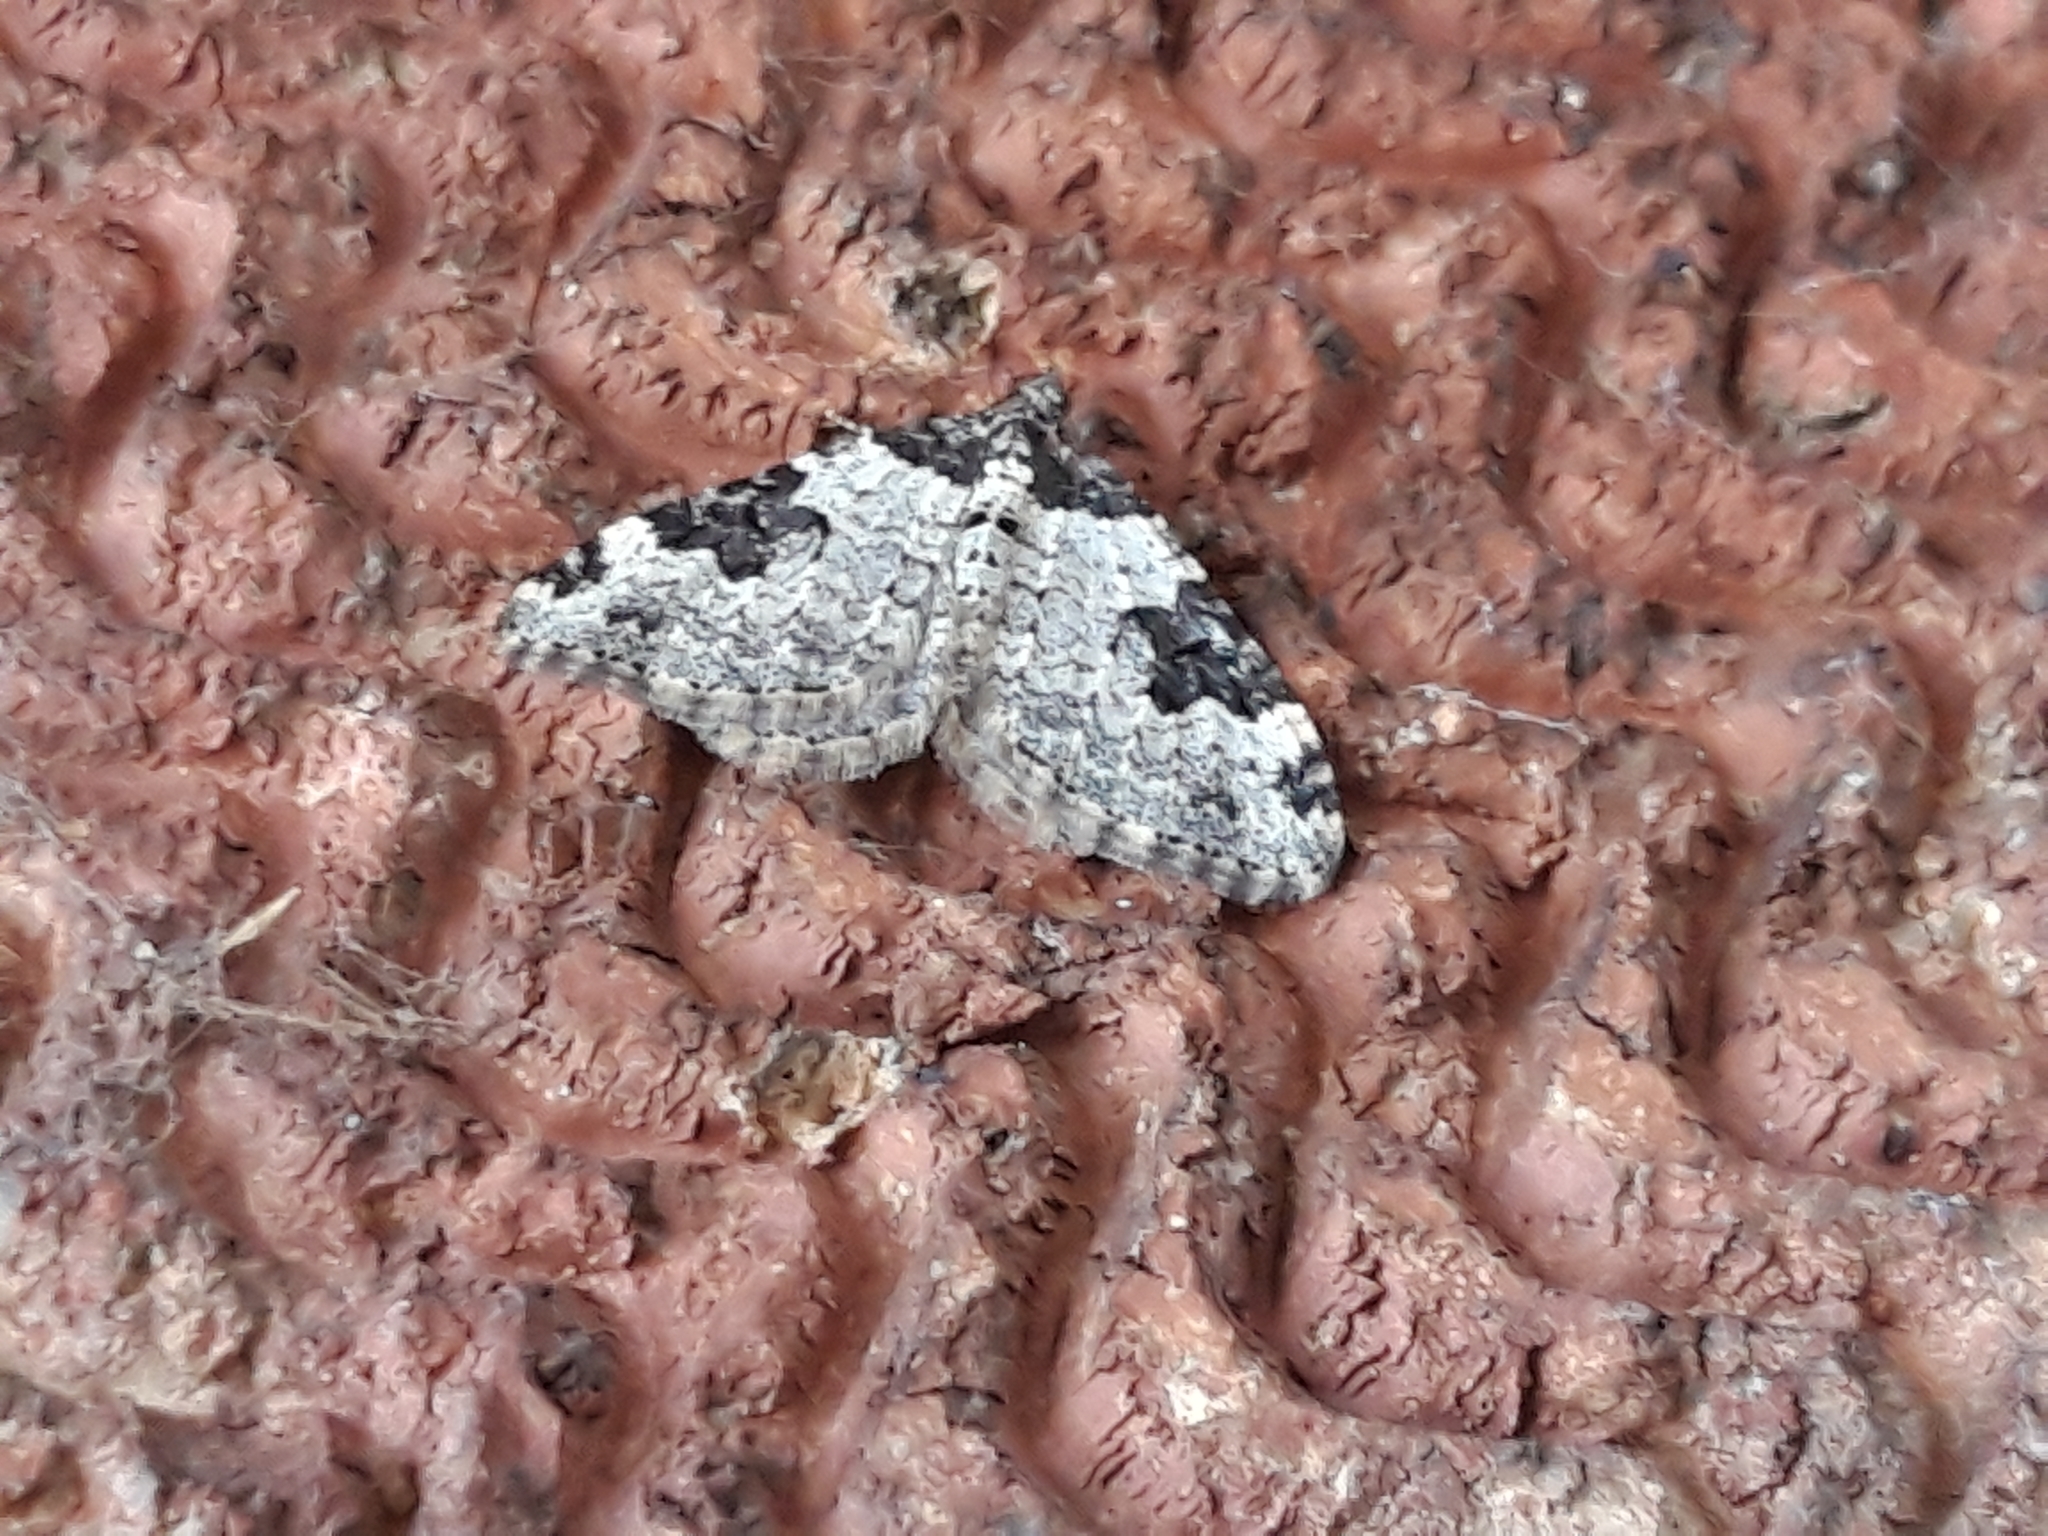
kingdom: Animalia
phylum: Arthropoda
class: Insecta
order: Lepidoptera
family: Geometridae
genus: Xanthorhoe
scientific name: Xanthorhoe fluctuata
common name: Garden carpet
